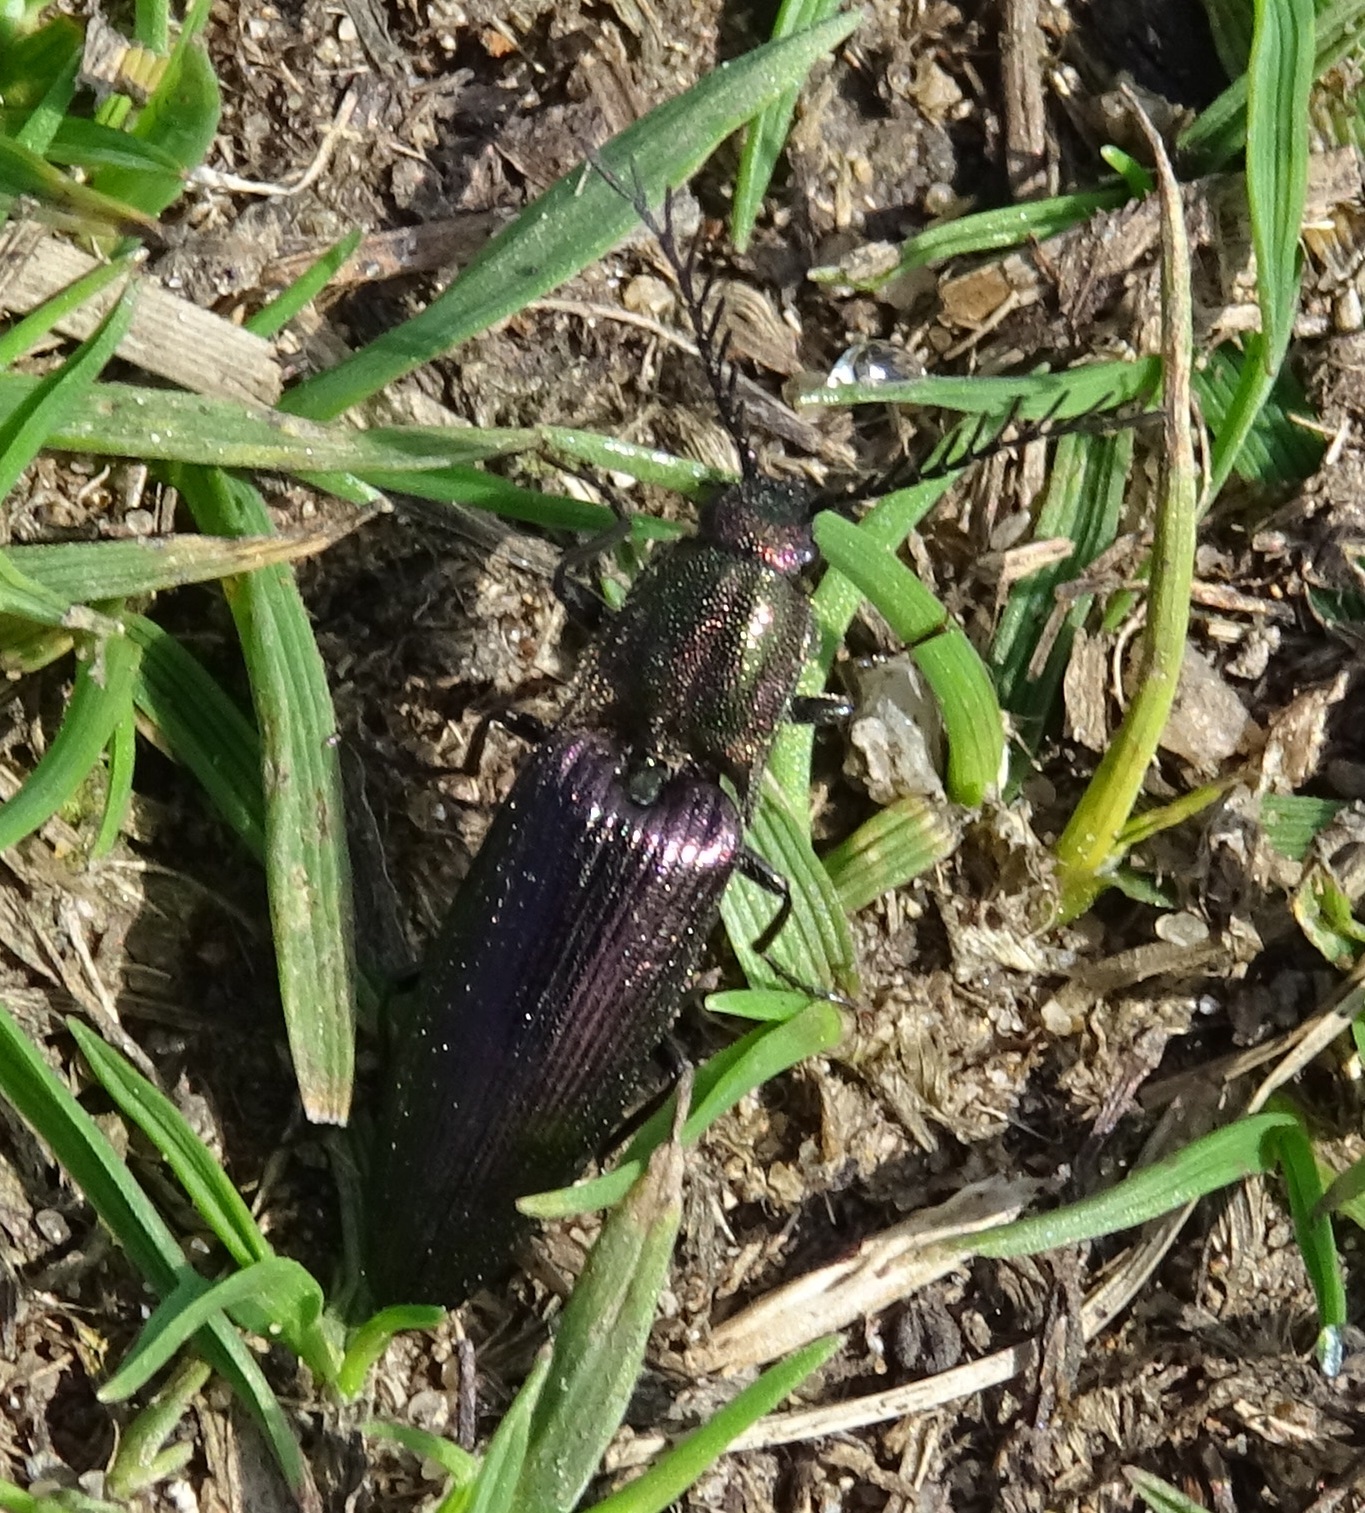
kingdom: Animalia
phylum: Arthropoda
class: Insecta
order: Coleoptera
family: Elateridae
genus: Ctenicera
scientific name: Ctenicera cuprea
